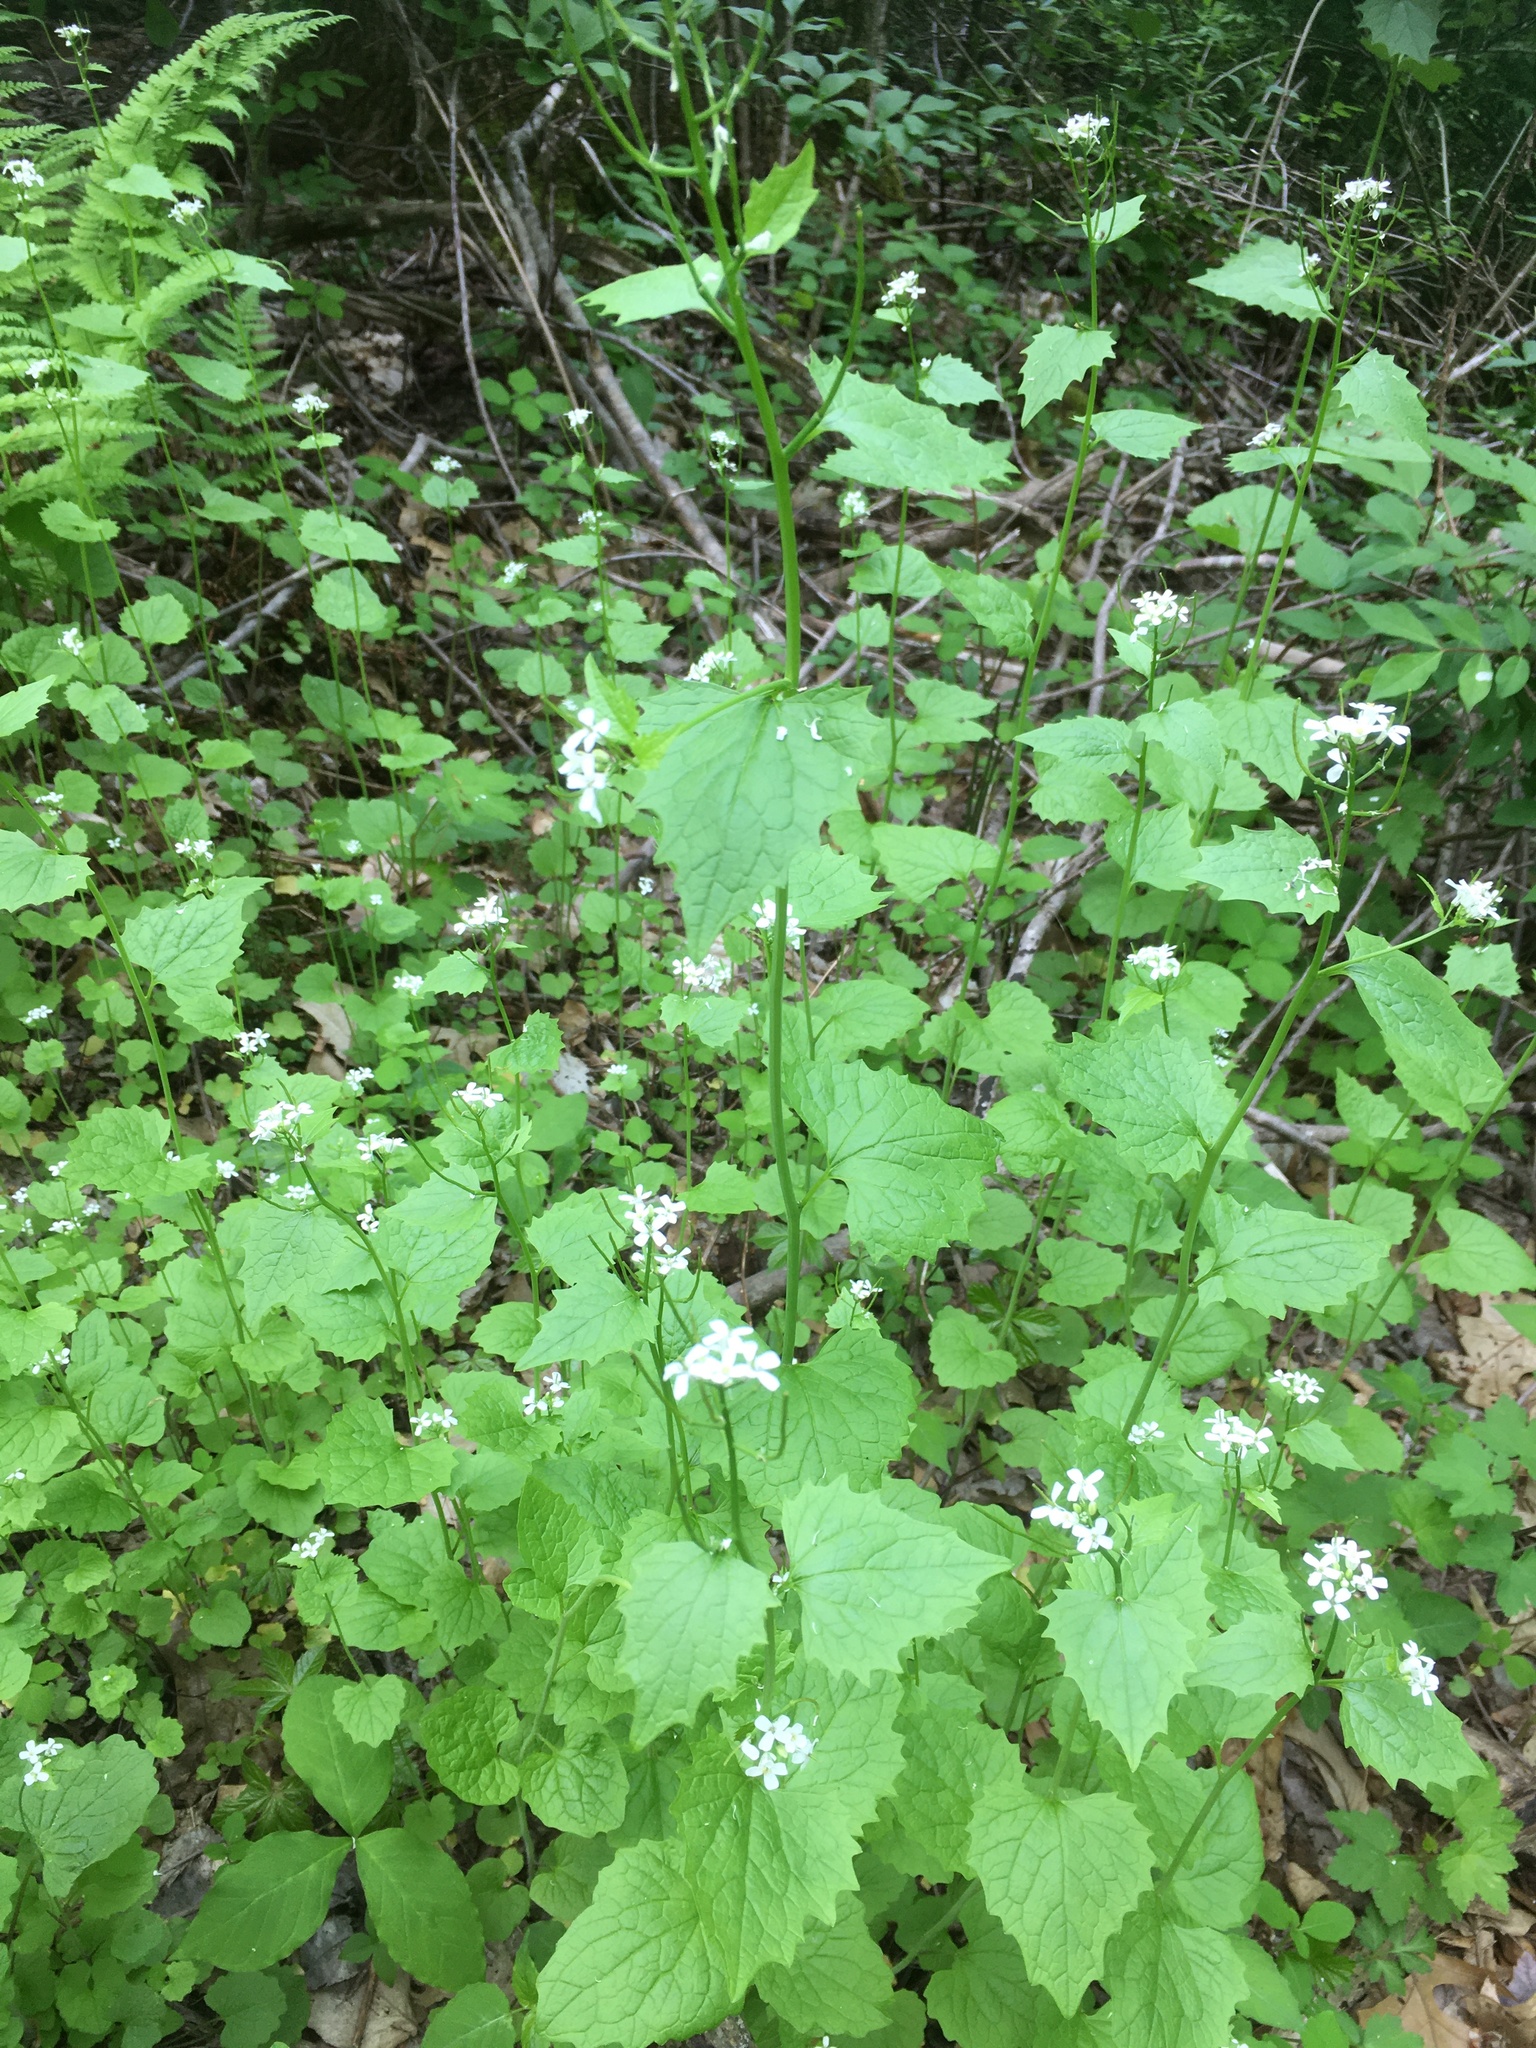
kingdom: Plantae
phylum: Tracheophyta
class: Magnoliopsida
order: Brassicales
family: Brassicaceae
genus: Alliaria
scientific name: Alliaria petiolata
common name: Garlic mustard
